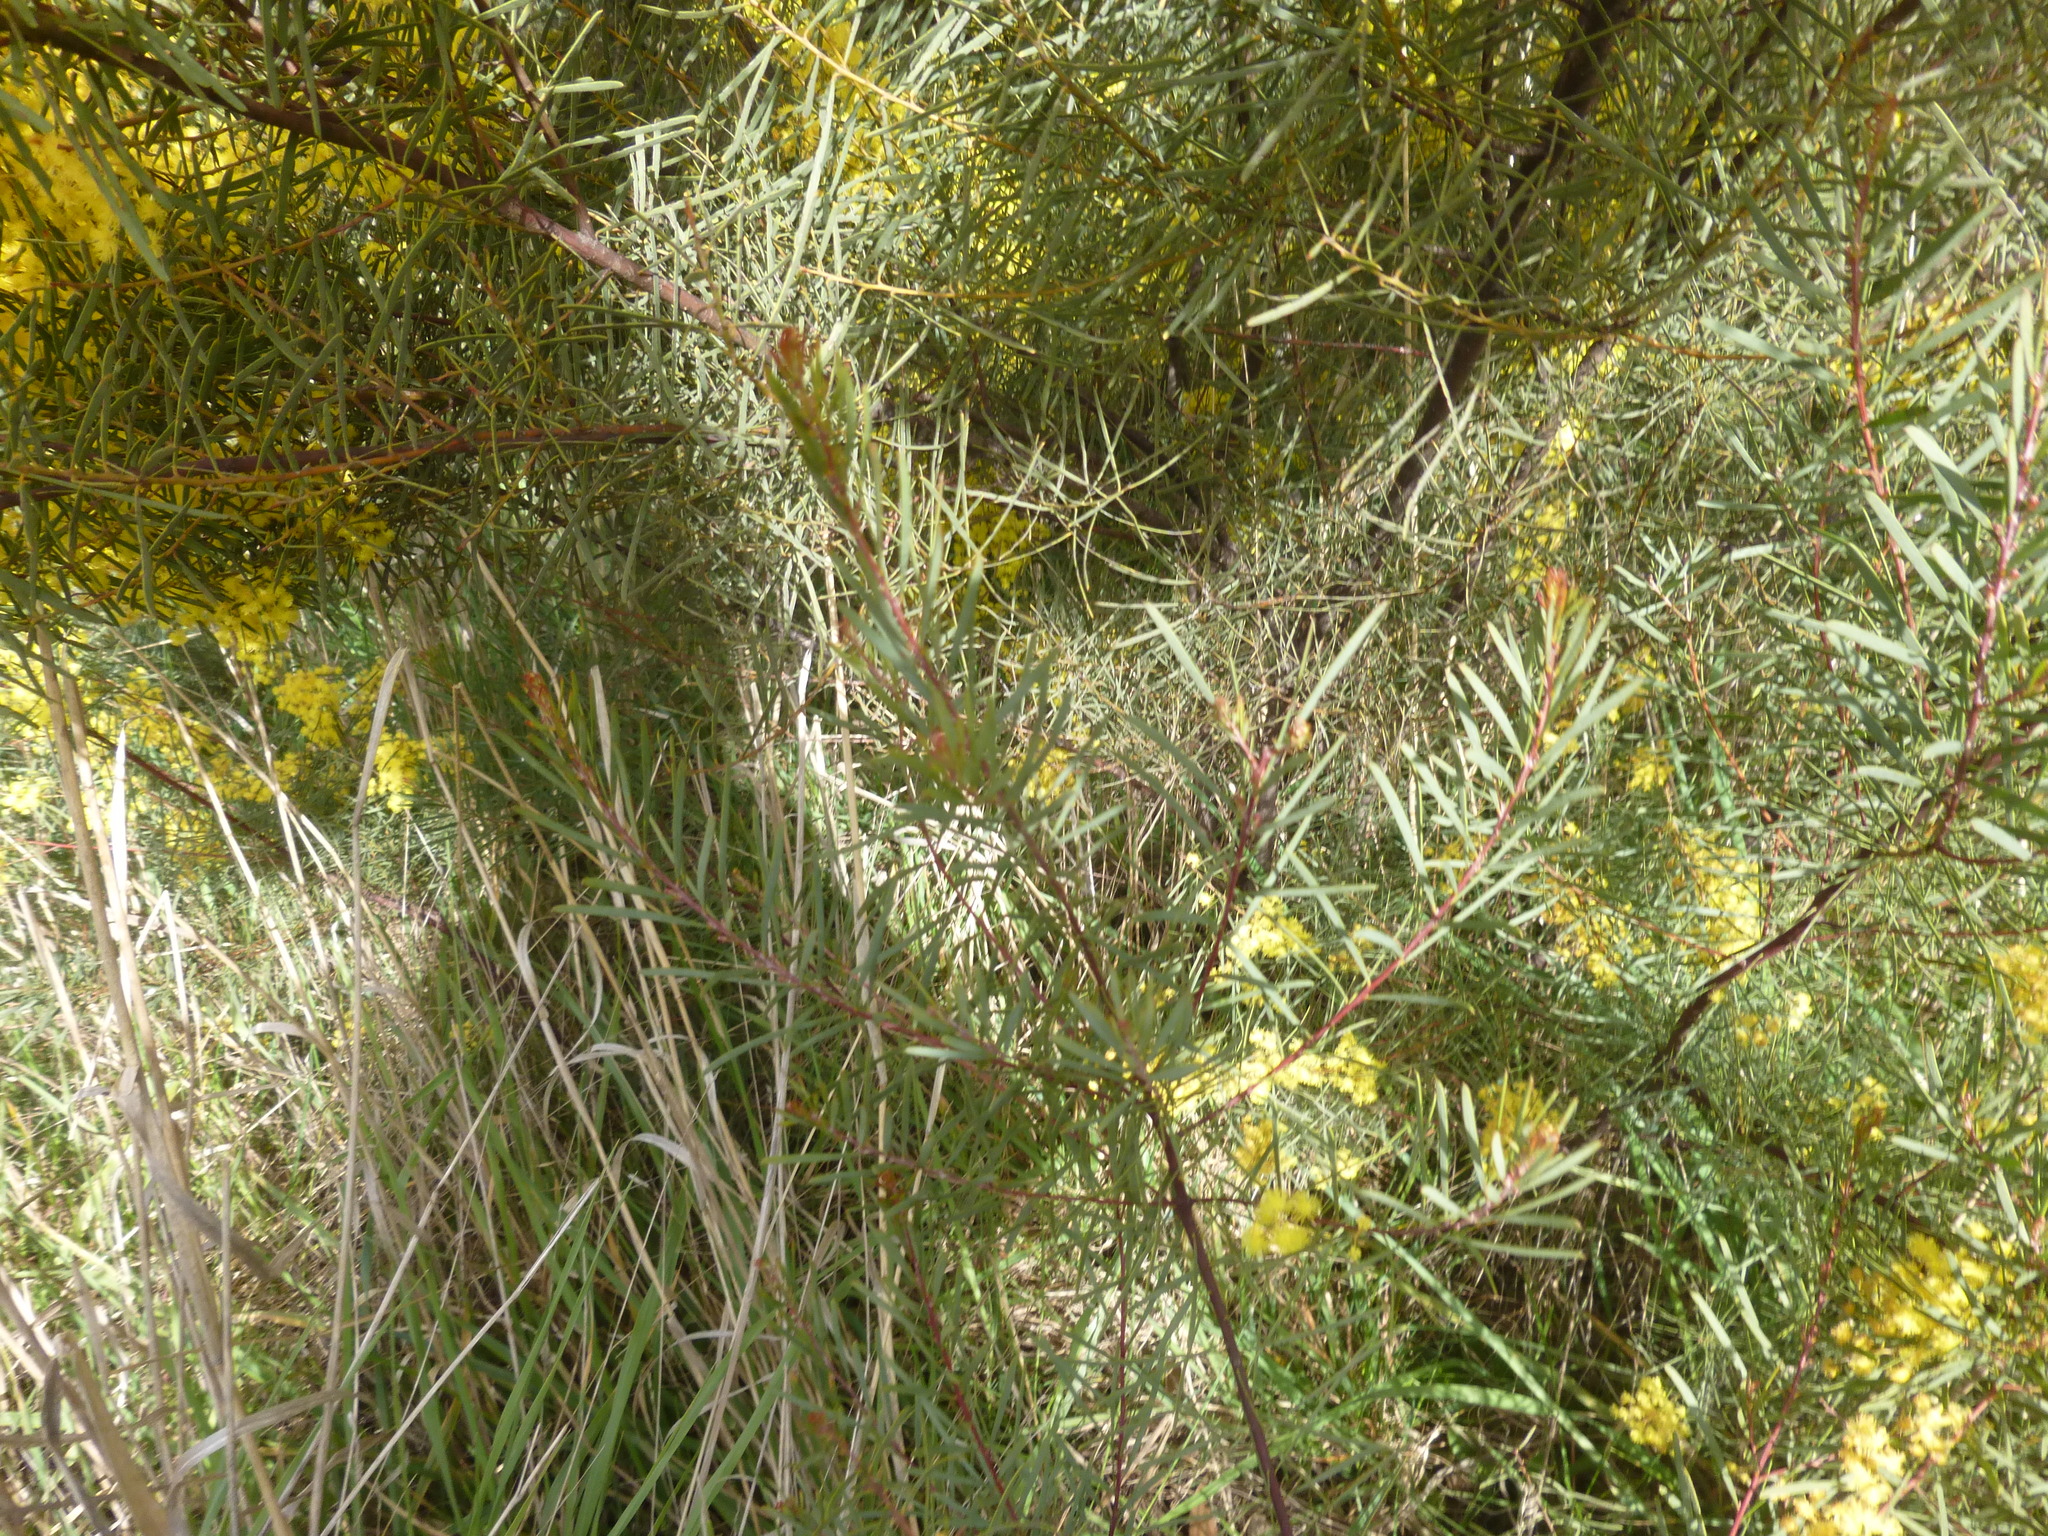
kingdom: Plantae
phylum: Tracheophyta
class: Magnoliopsida
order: Fabales
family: Fabaceae
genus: Acacia
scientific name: Acacia provincialis
